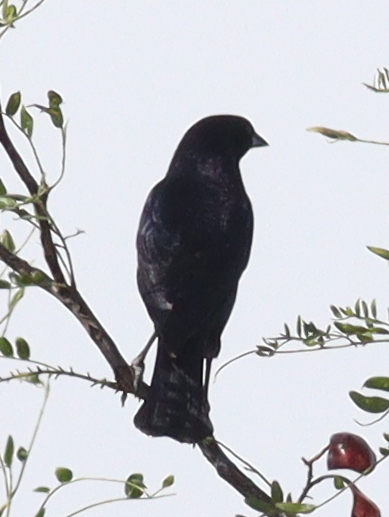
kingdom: Animalia
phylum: Chordata
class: Aves
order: Passeriformes
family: Icteridae
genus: Molothrus
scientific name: Molothrus bonariensis
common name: Shiny cowbird
